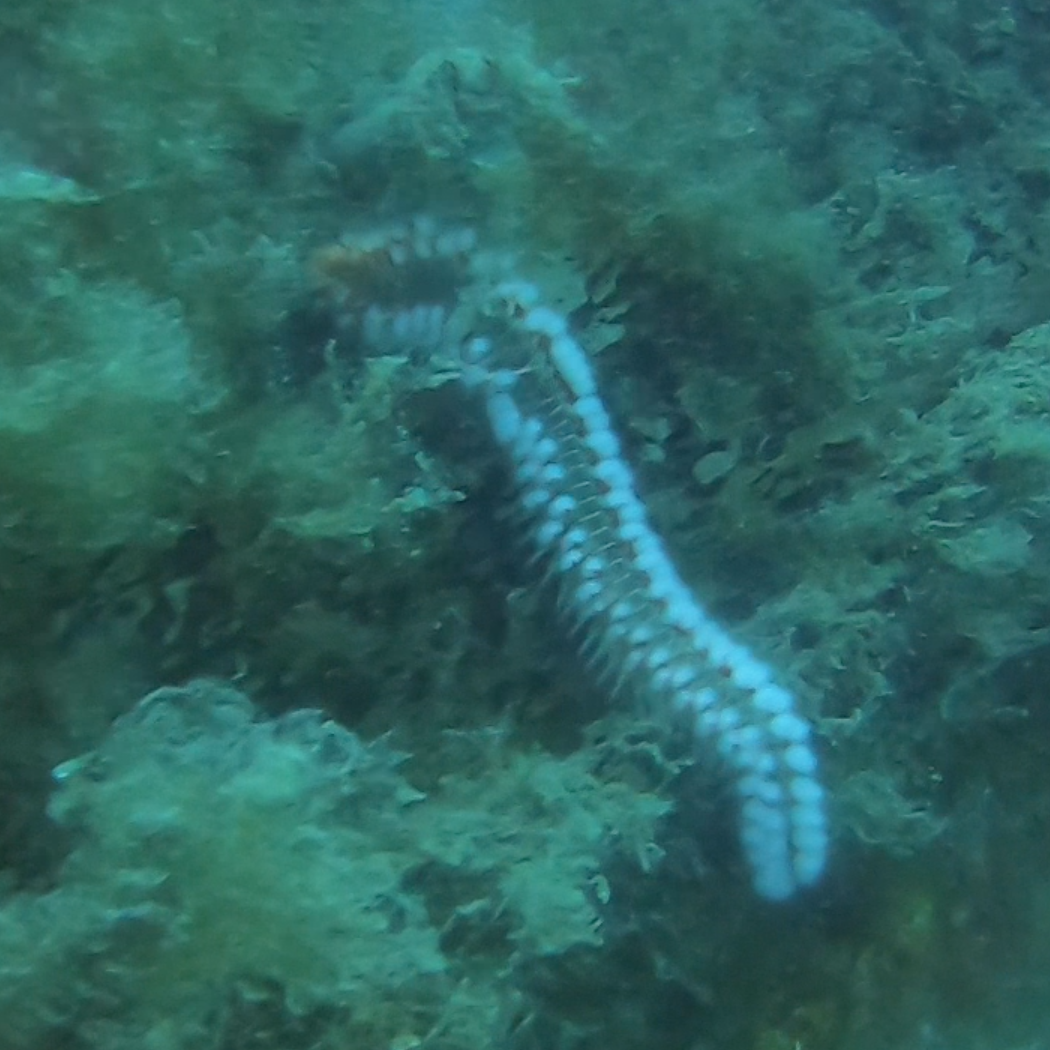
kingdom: Animalia
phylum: Annelida
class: Polychaeta
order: Amphinomida
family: Amphinomidae
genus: Hermodice
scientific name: Hermodice carunculata
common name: Bearded fireworm
